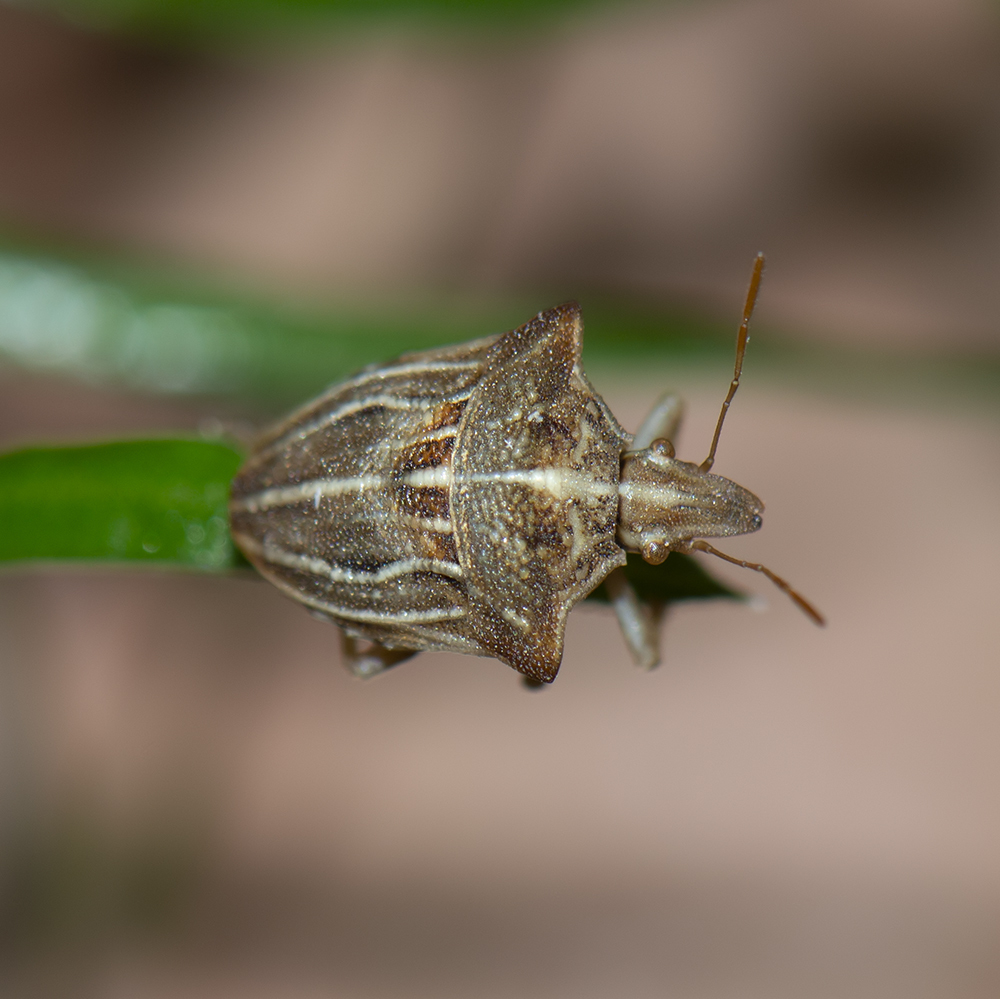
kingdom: Animalia
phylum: Arthropoda
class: Insecta
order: Hemiptera
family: Pentatomidae
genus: Ancyrosoma
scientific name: Ancyrosoma leucogrammes
